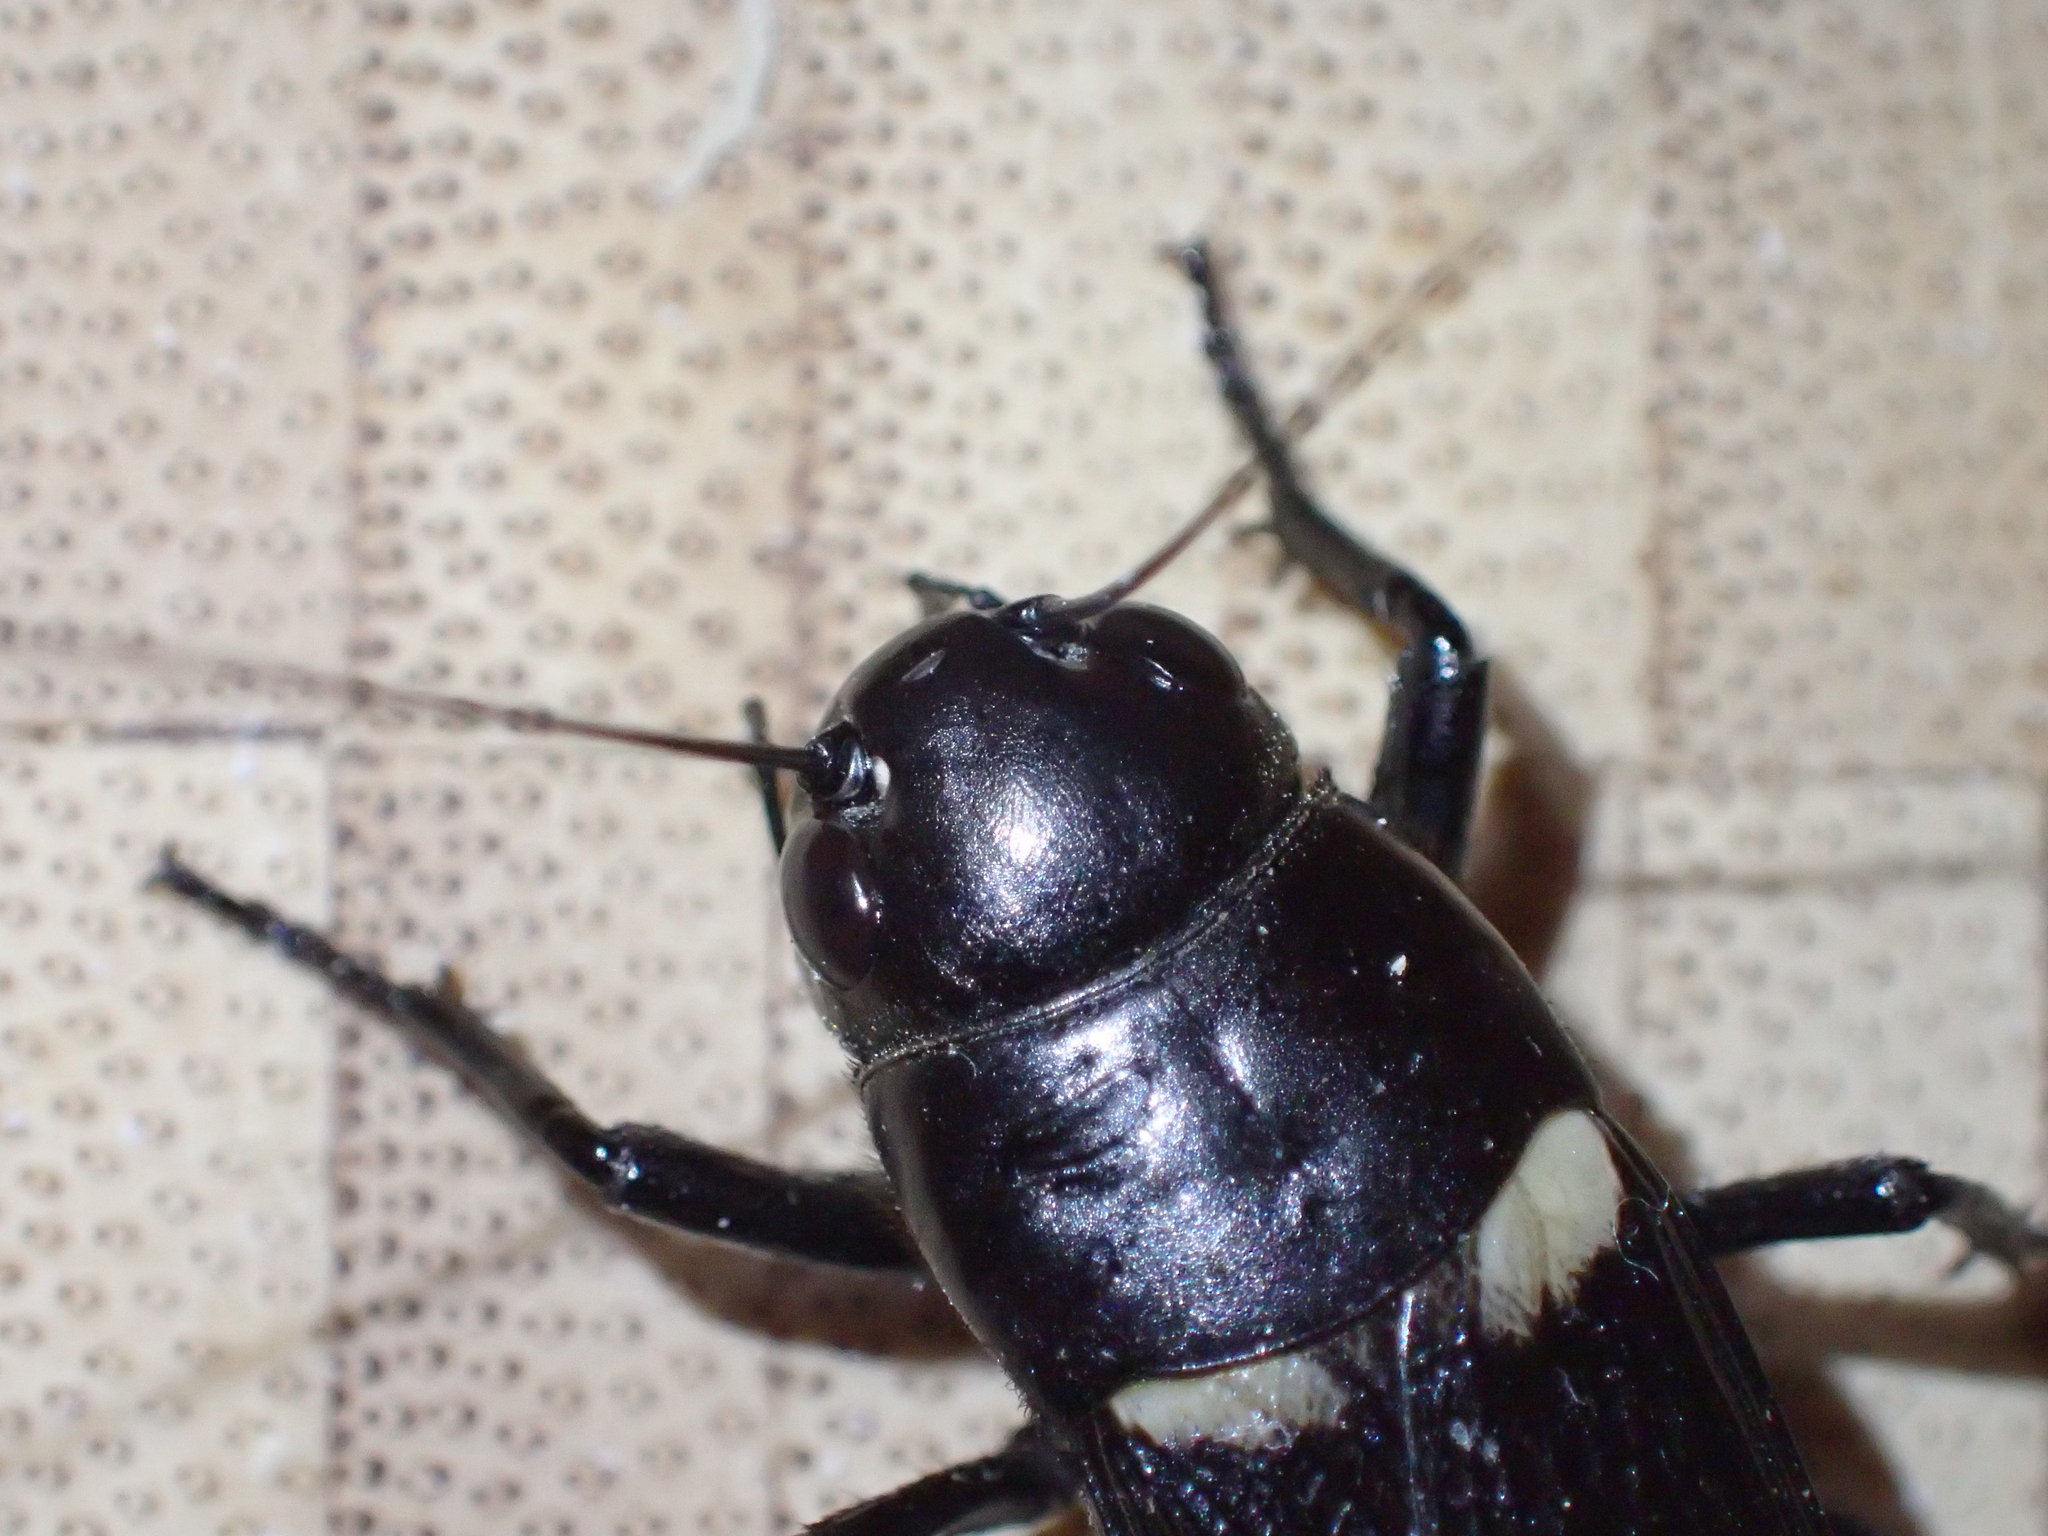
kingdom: Animalia
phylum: Arthropoda
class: Insecta
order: Orthoptera
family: Gryllidae
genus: Gryllus
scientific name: Gryllus bimaculatus
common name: Two-spotted cricket
